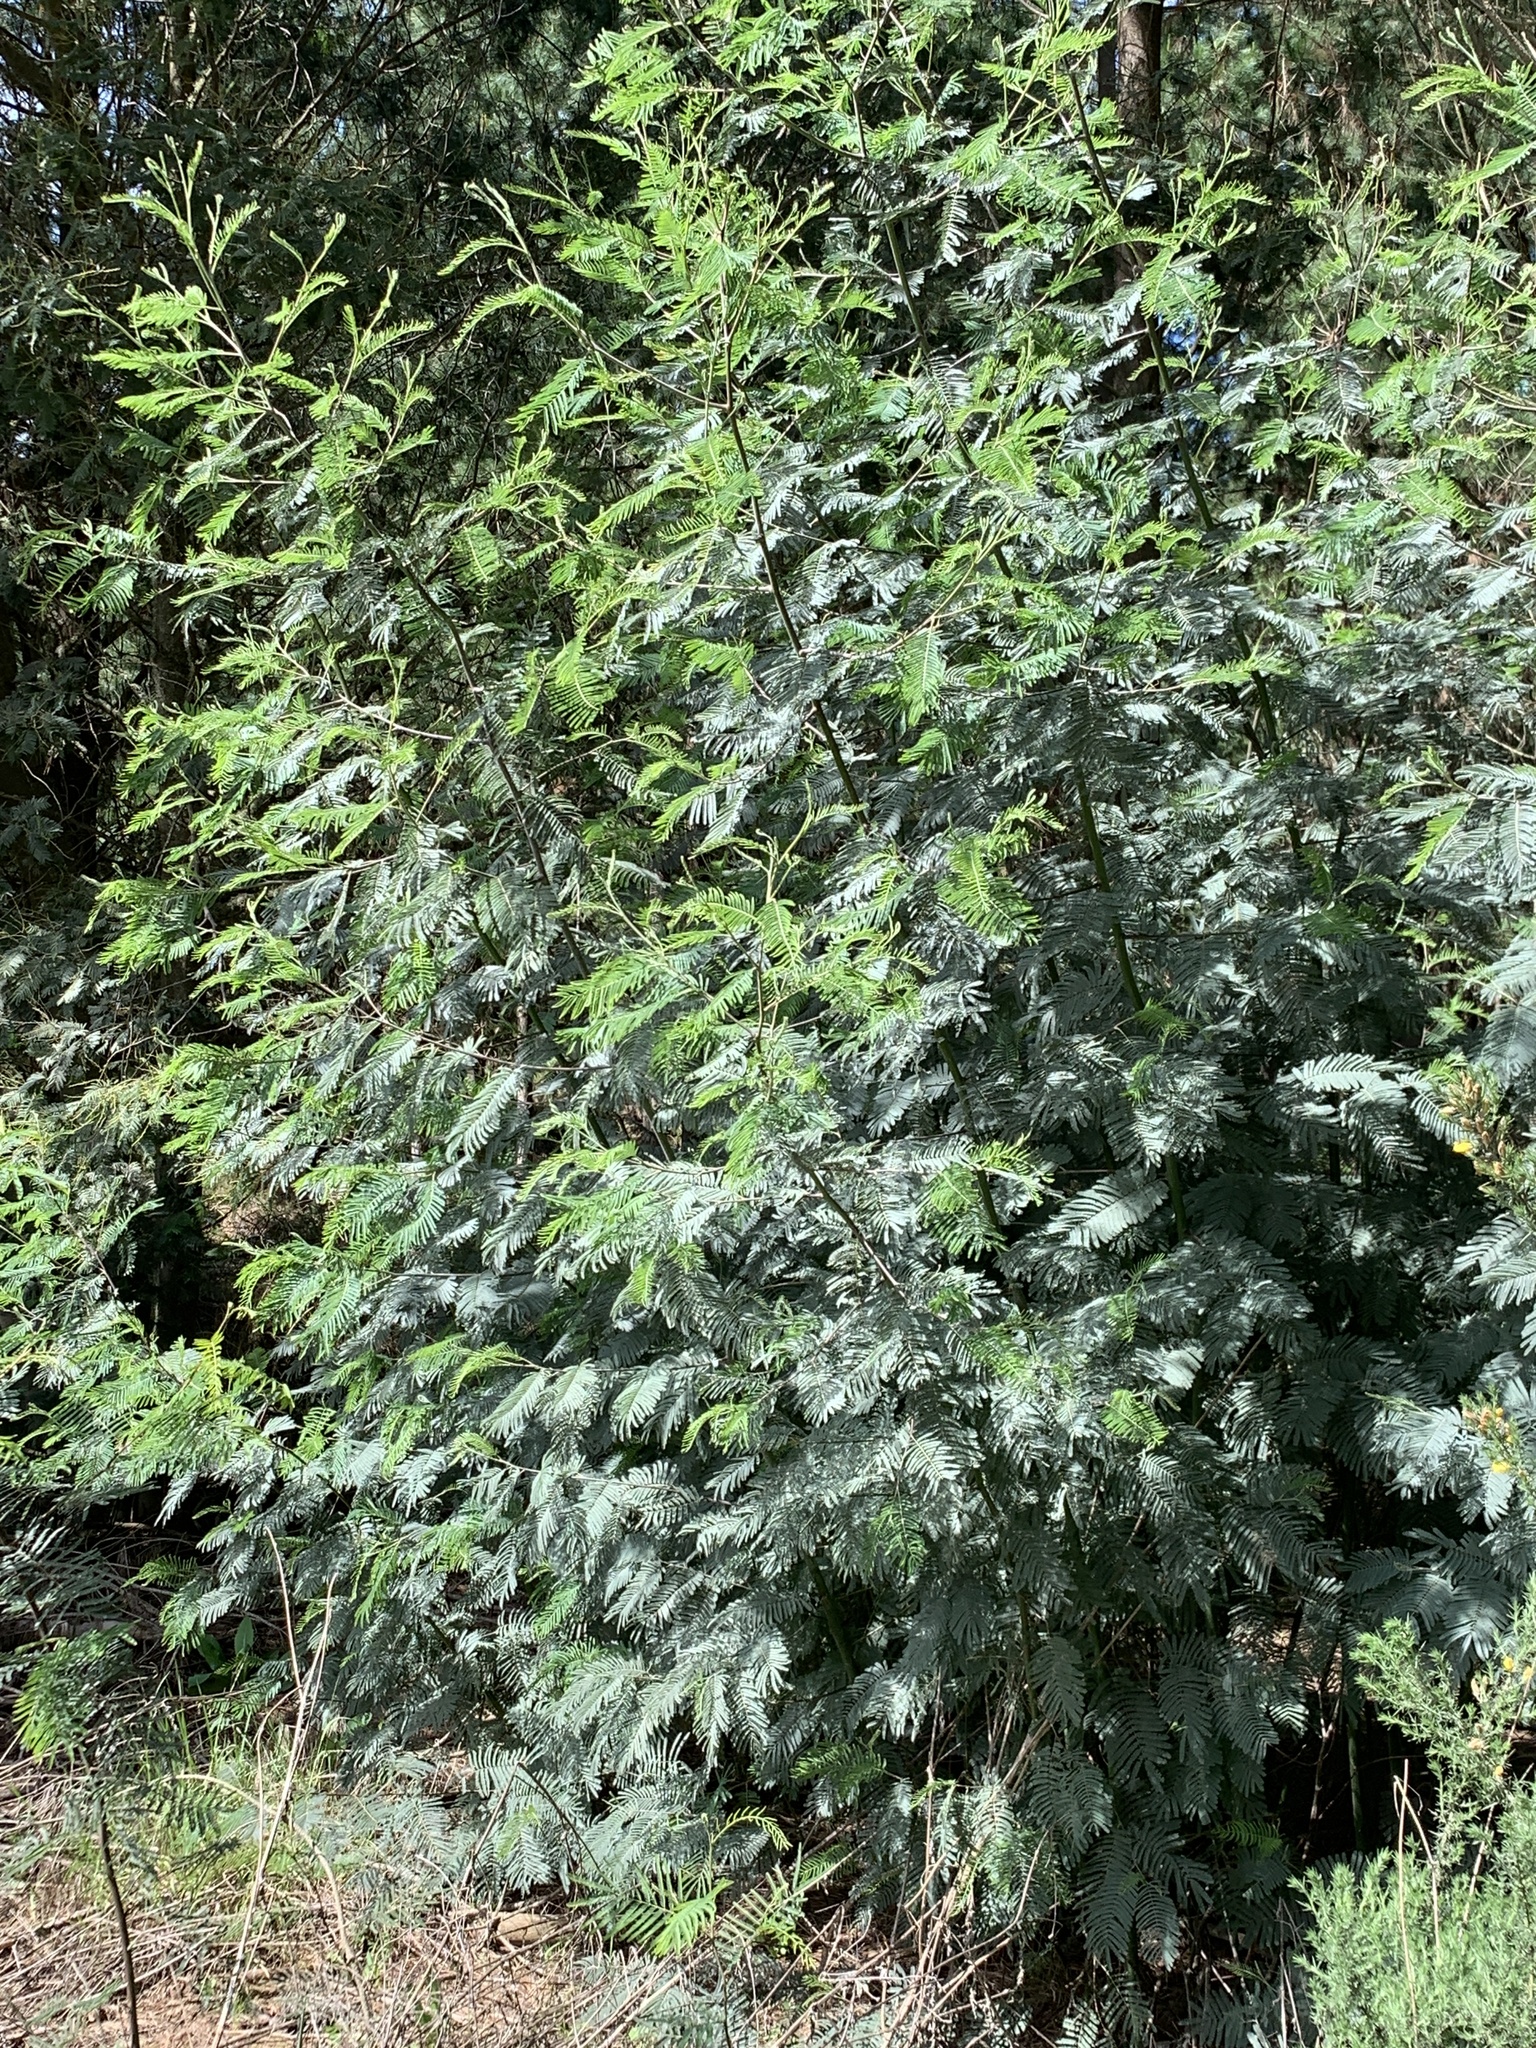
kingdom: Plantae
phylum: Tracheophyta
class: Magnoliopsida
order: Fabales
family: Fabaceae
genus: Acacia
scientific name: Acacia dealbata
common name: Silver wattle
